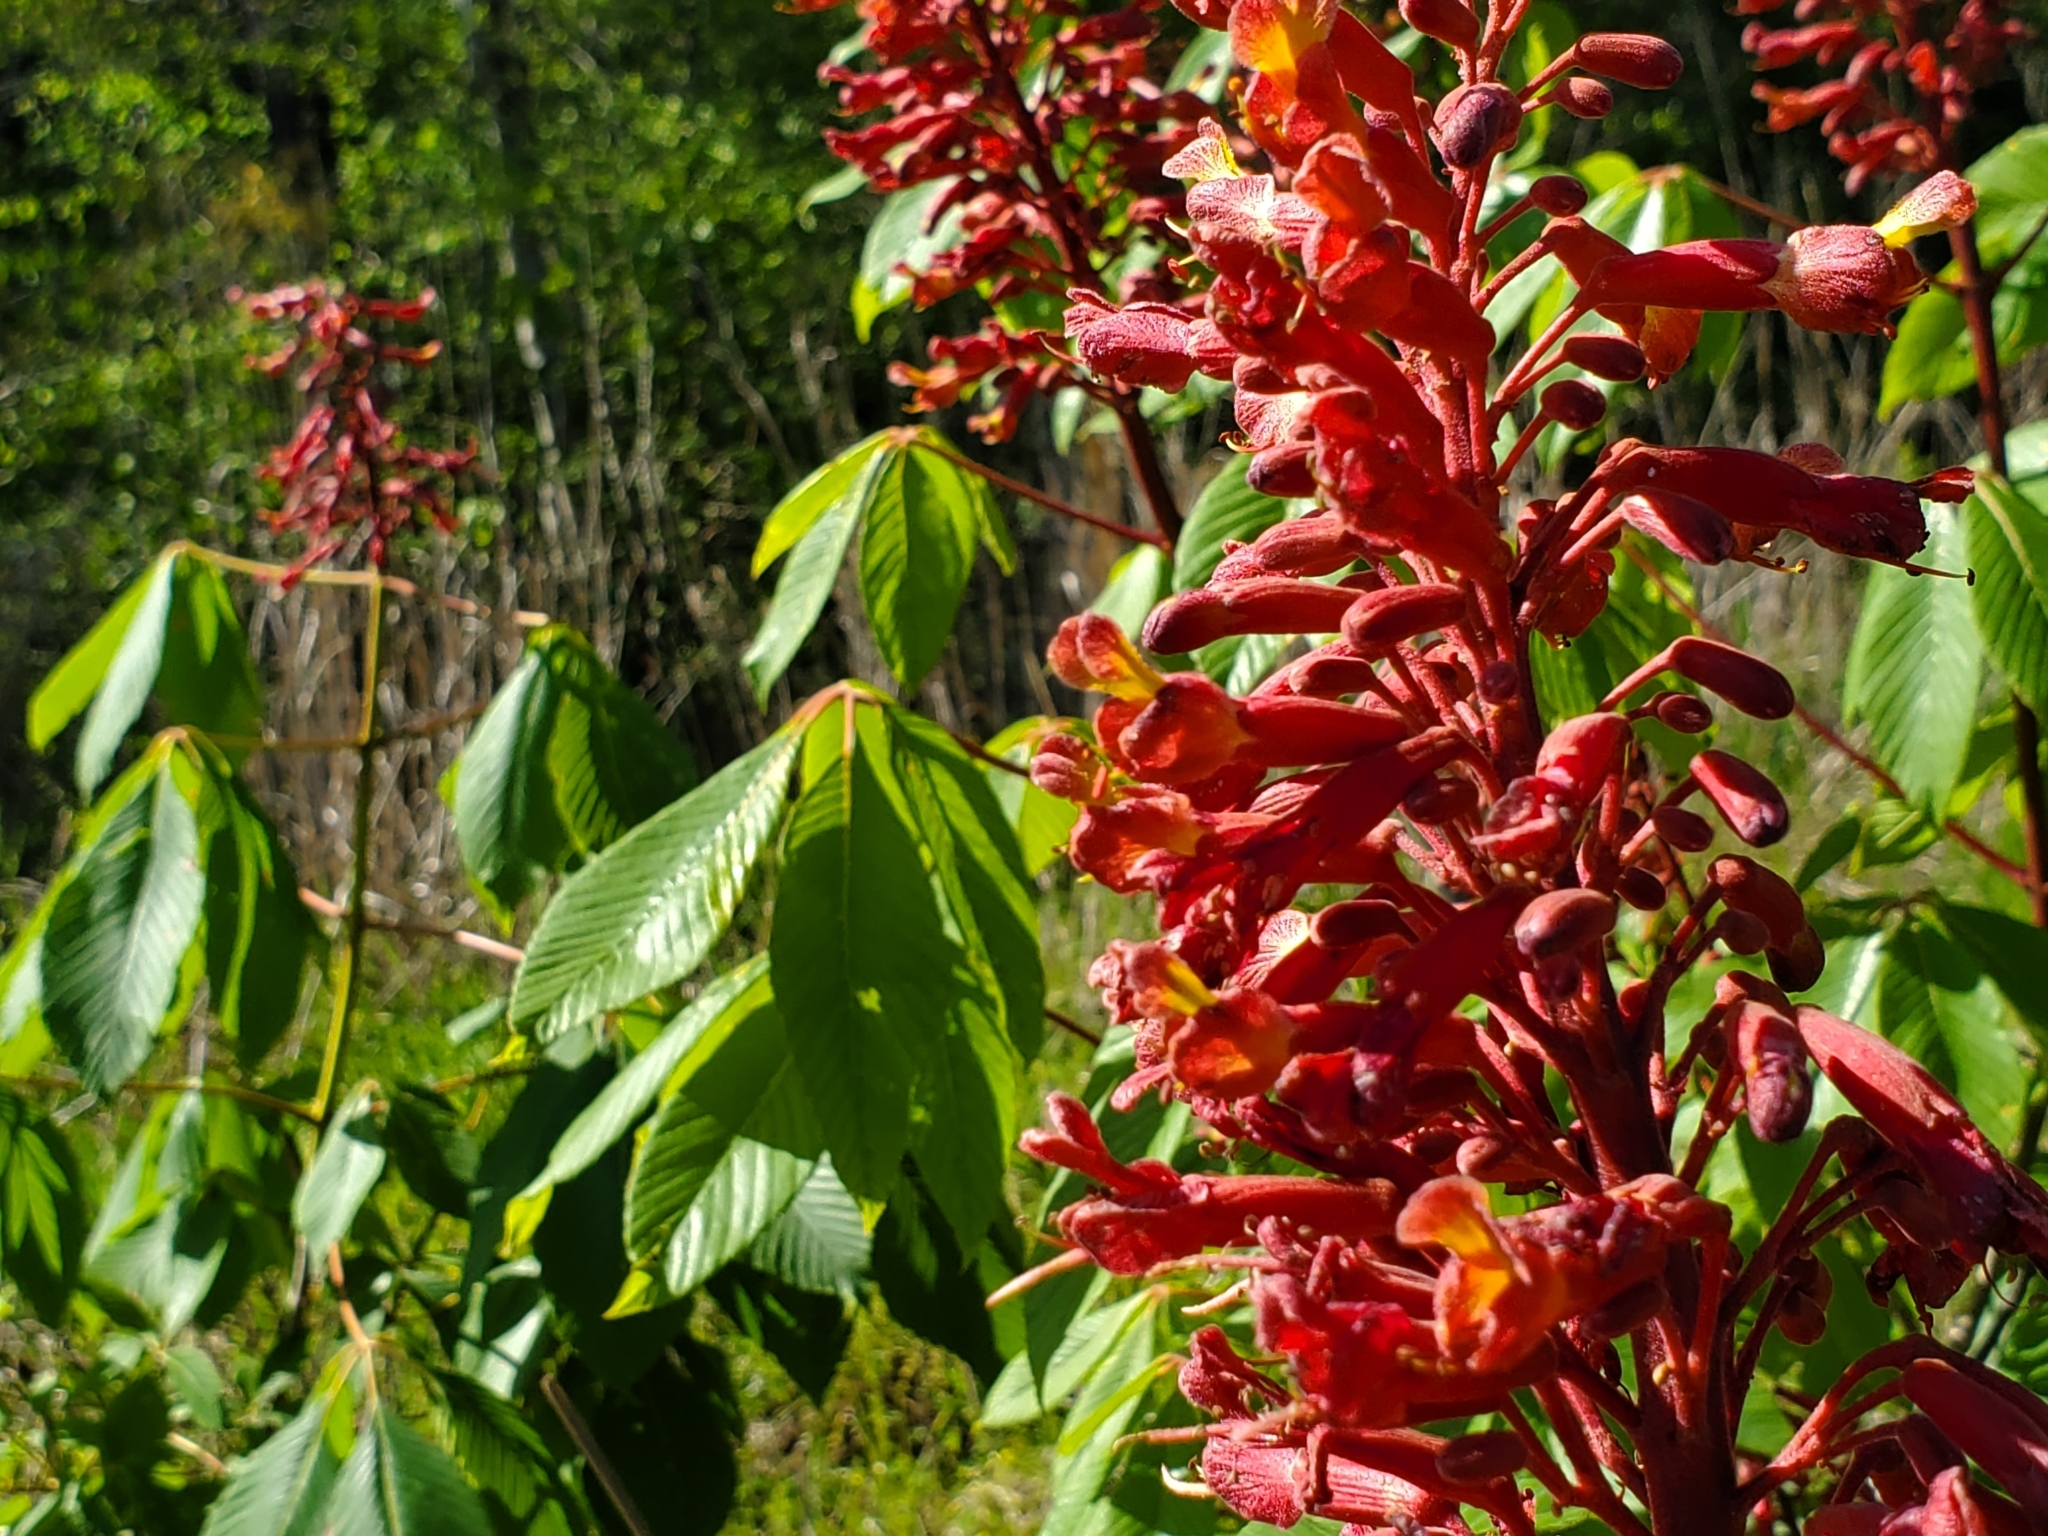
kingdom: Plantae
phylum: Tracheophyta
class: Magnoliopsida
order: Sapindales
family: Sapindaceae
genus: Aesculus
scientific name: Aesculus pavia
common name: Red buckeye
